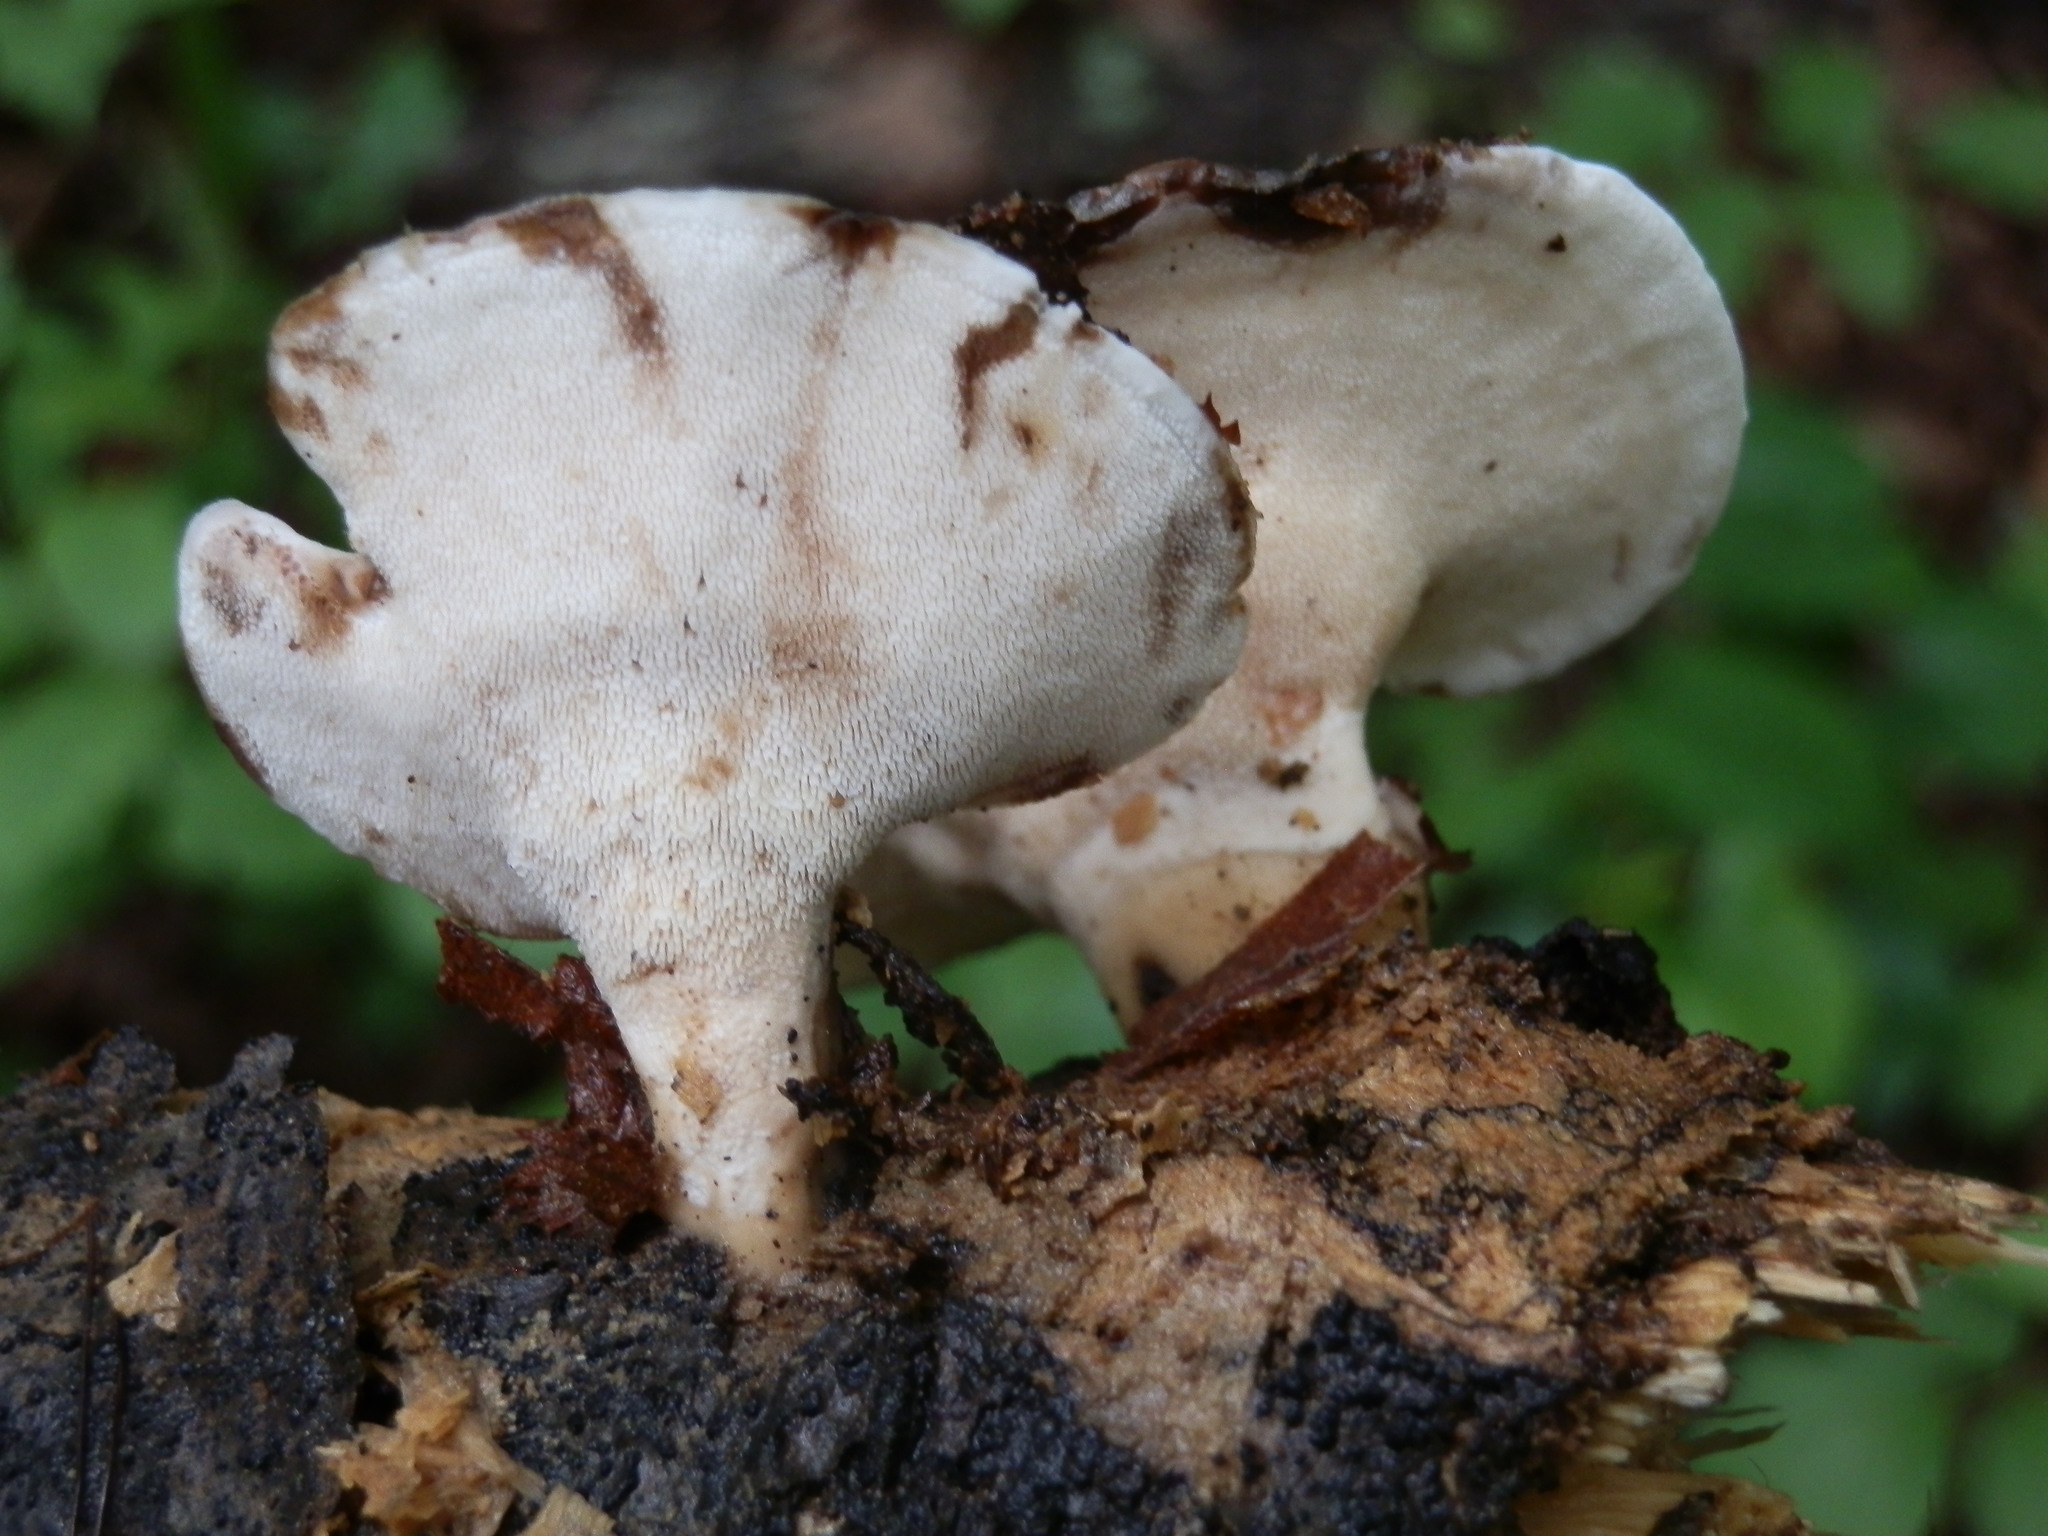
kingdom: Fungi
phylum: Basidiomycota
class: Agaricomycetes
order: Polyporales
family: Steccherinaceae
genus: Mycorrhaphium
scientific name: Mycorrhaphium adustum
